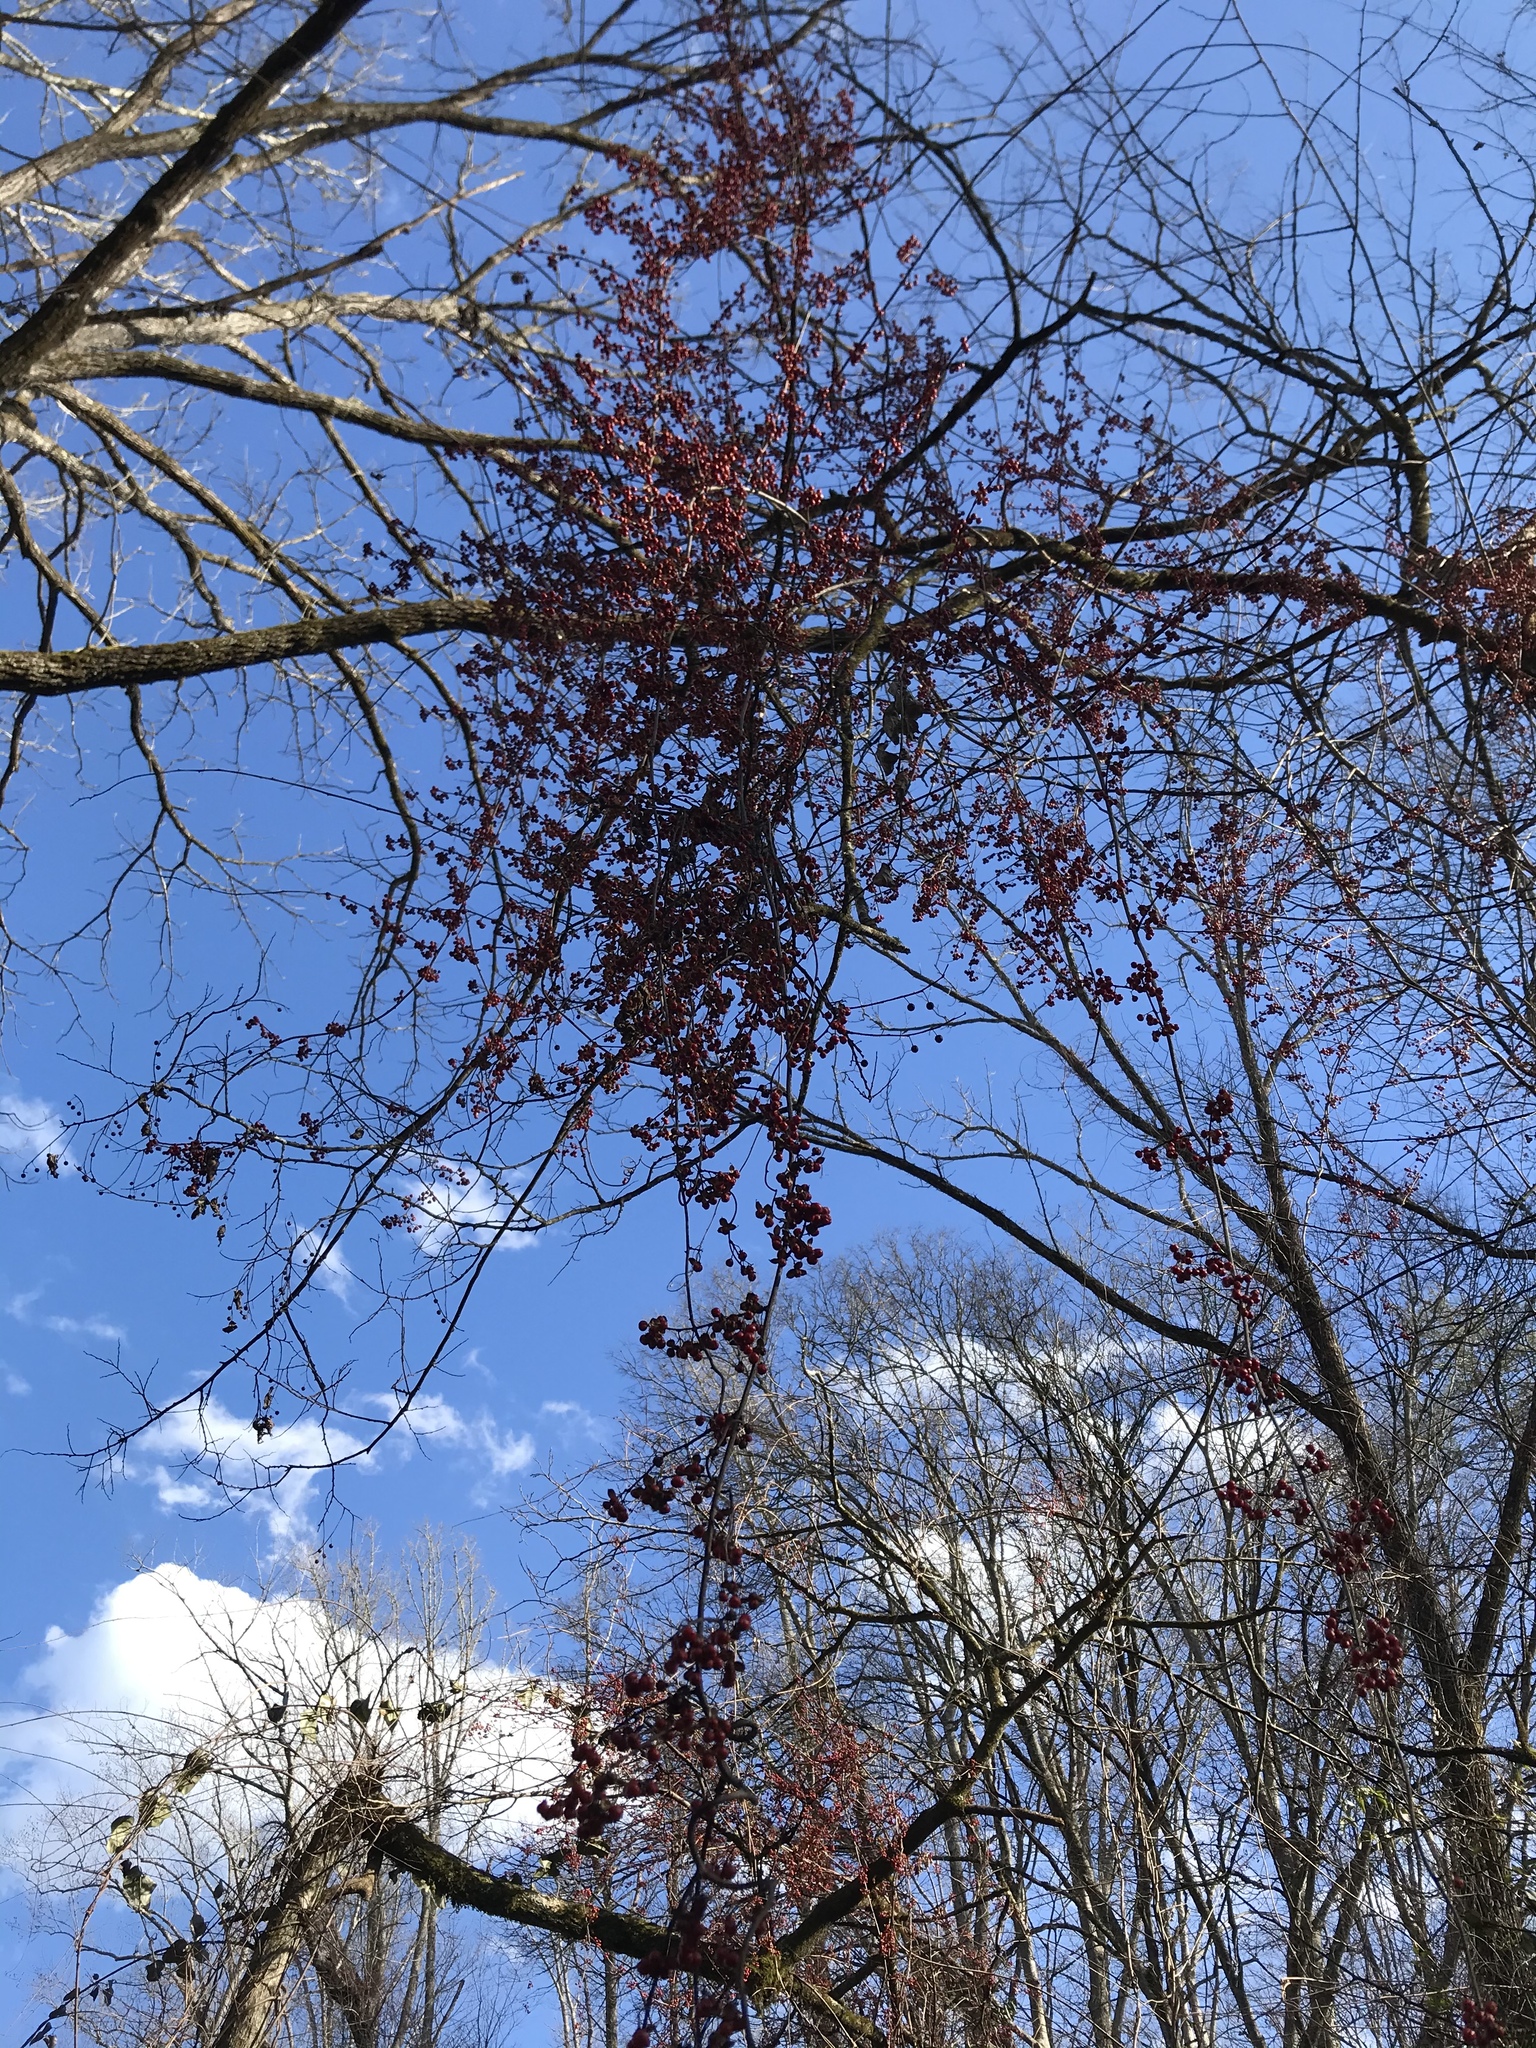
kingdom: Plantae
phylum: Tracheophyta
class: Magnoliopsida
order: Celastrales
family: Celastraceae
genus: Celastrus
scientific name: Celastrus orbiculatus
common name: Oriental bittersweet
